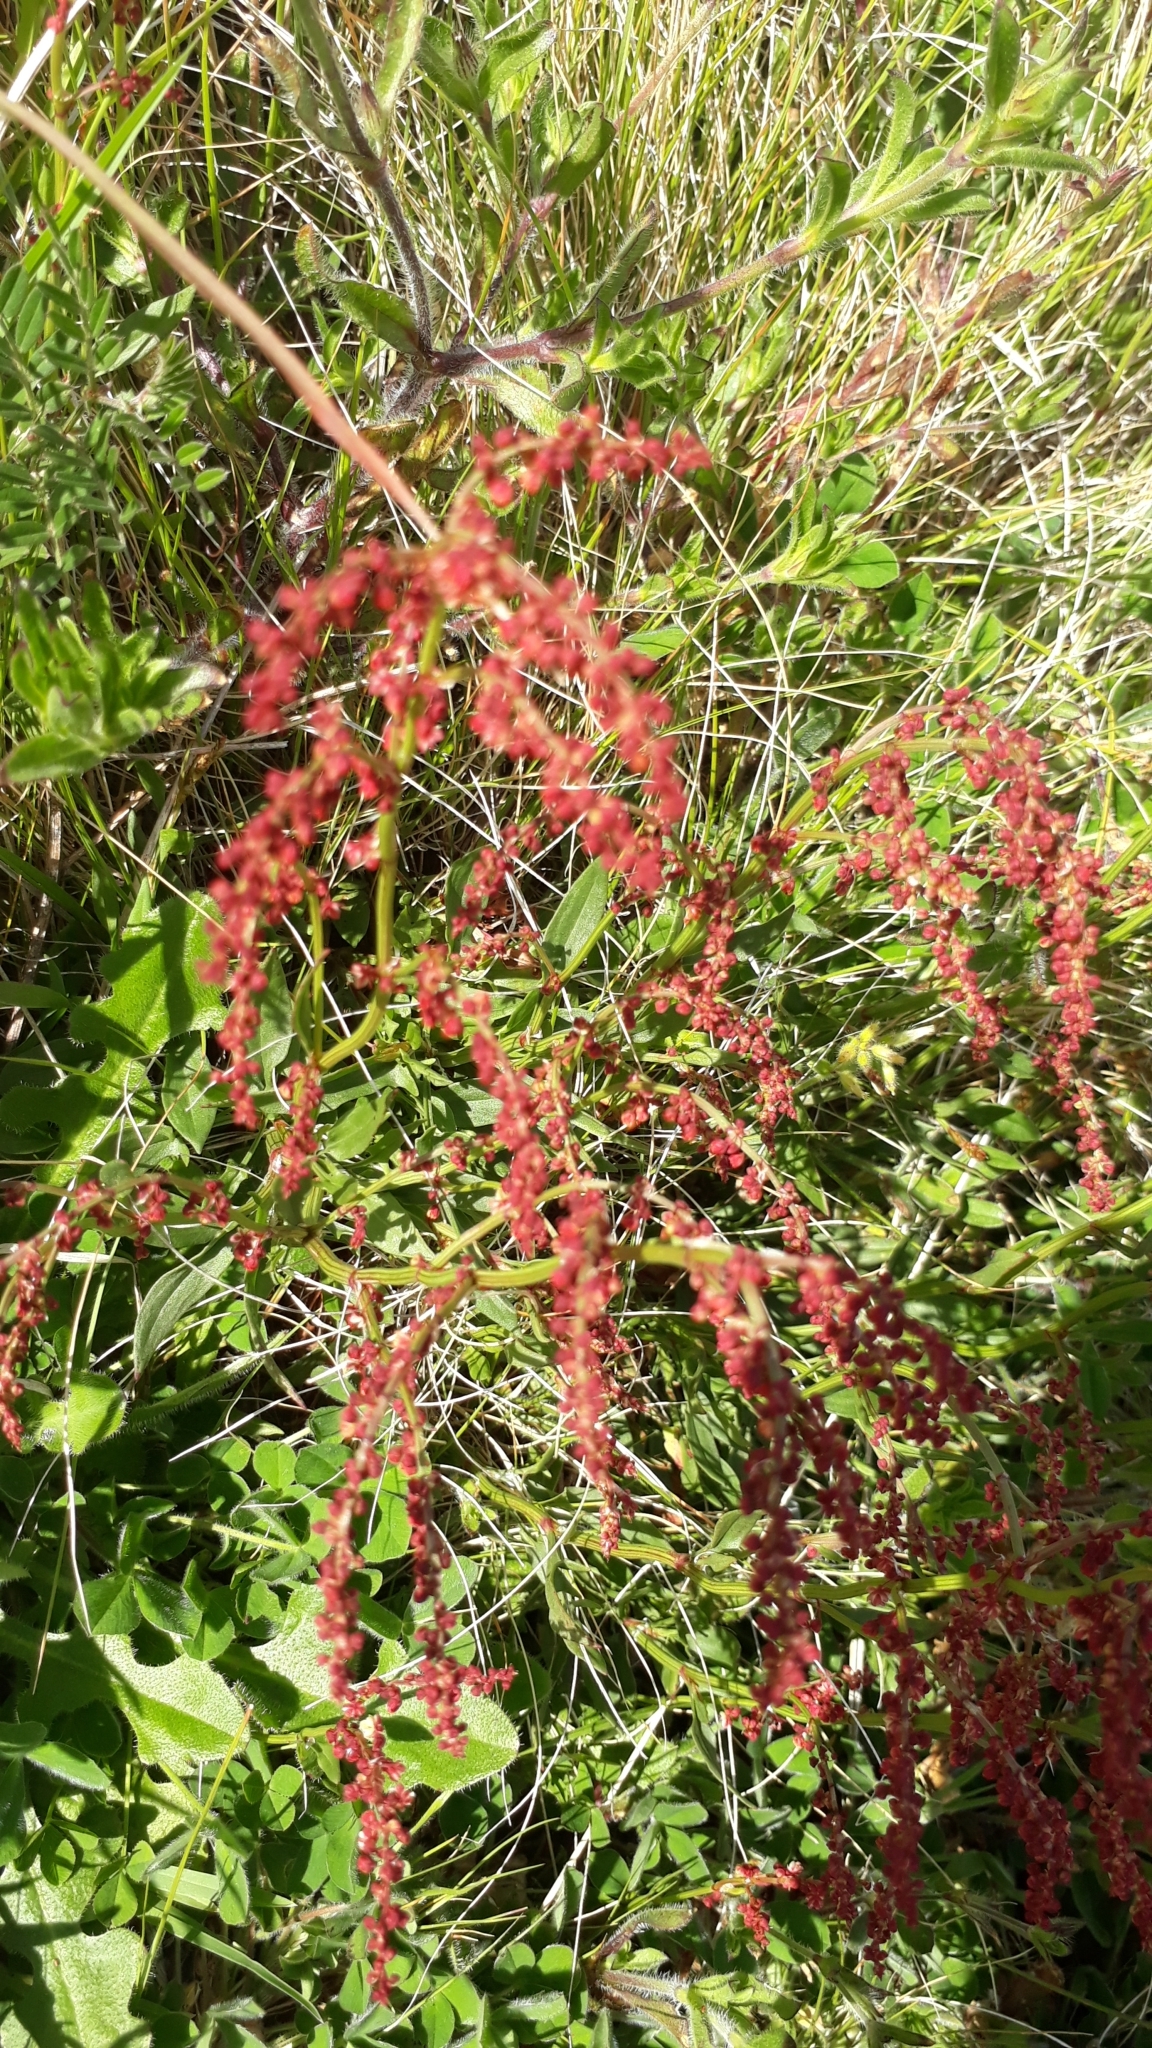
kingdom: Plantae
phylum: Tracheophyta
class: Magnoliopsida
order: Caryophyllales
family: Polygonaceae
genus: Rumex
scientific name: Rumex acetosella
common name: Common sheep sorrel
